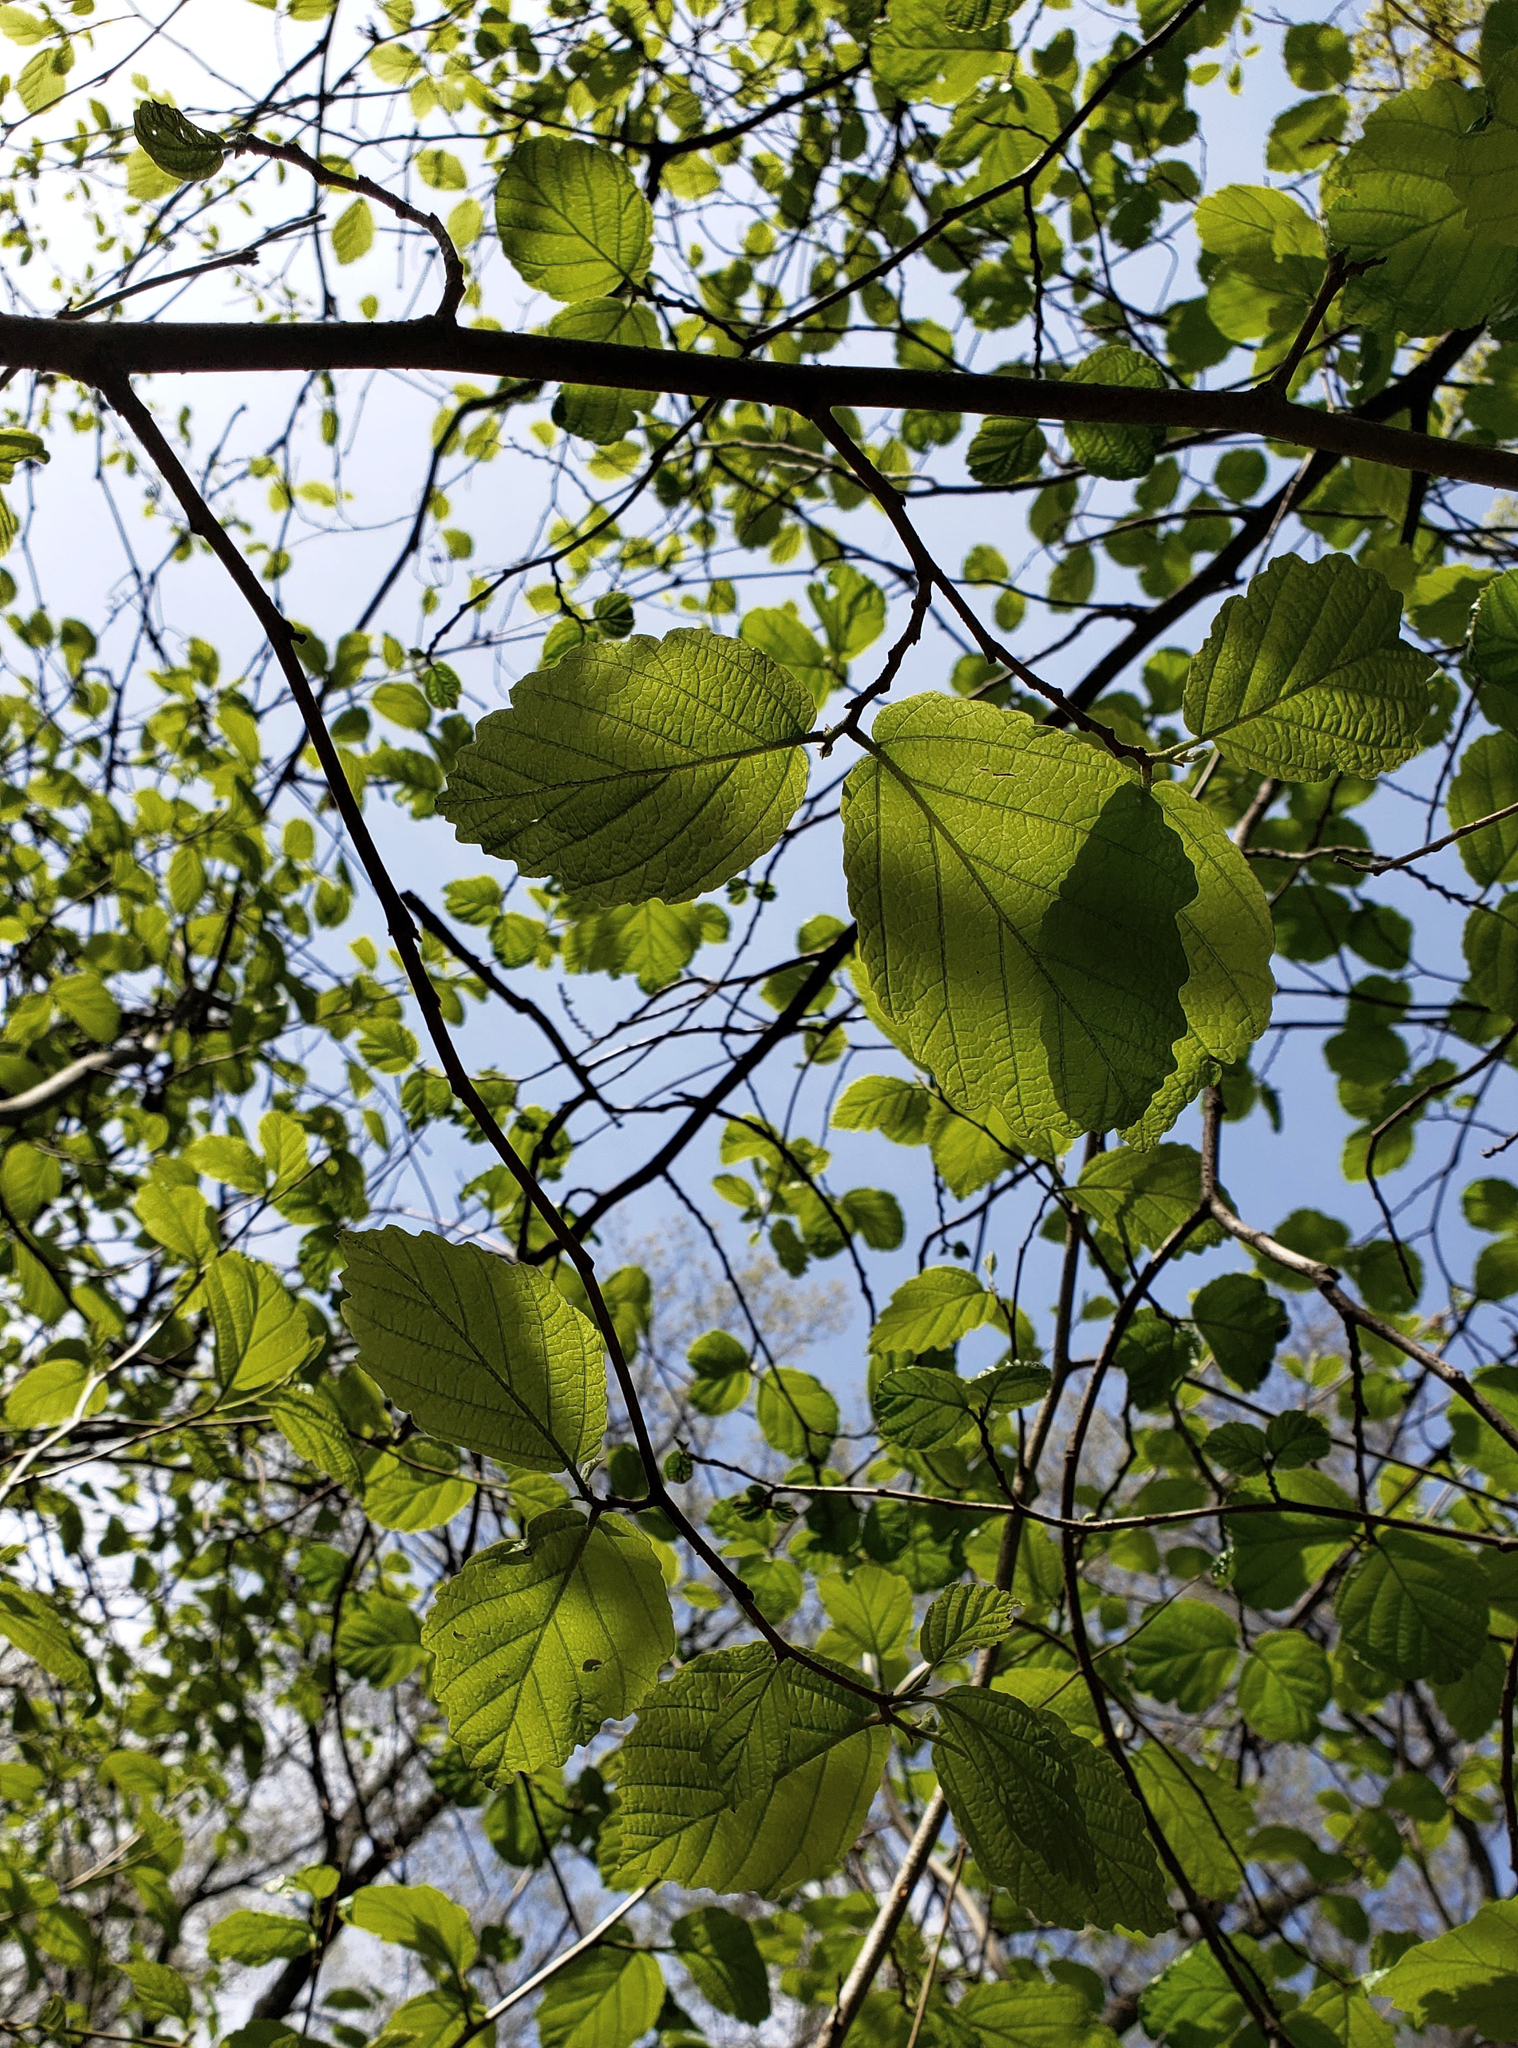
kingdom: Plantae
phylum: Tracheophyta
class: Magnoliopsida
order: Saxifragales
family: Hamamelidaceae
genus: Hamamelis
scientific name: Hamamelis virginiana
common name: Witch-hazel
